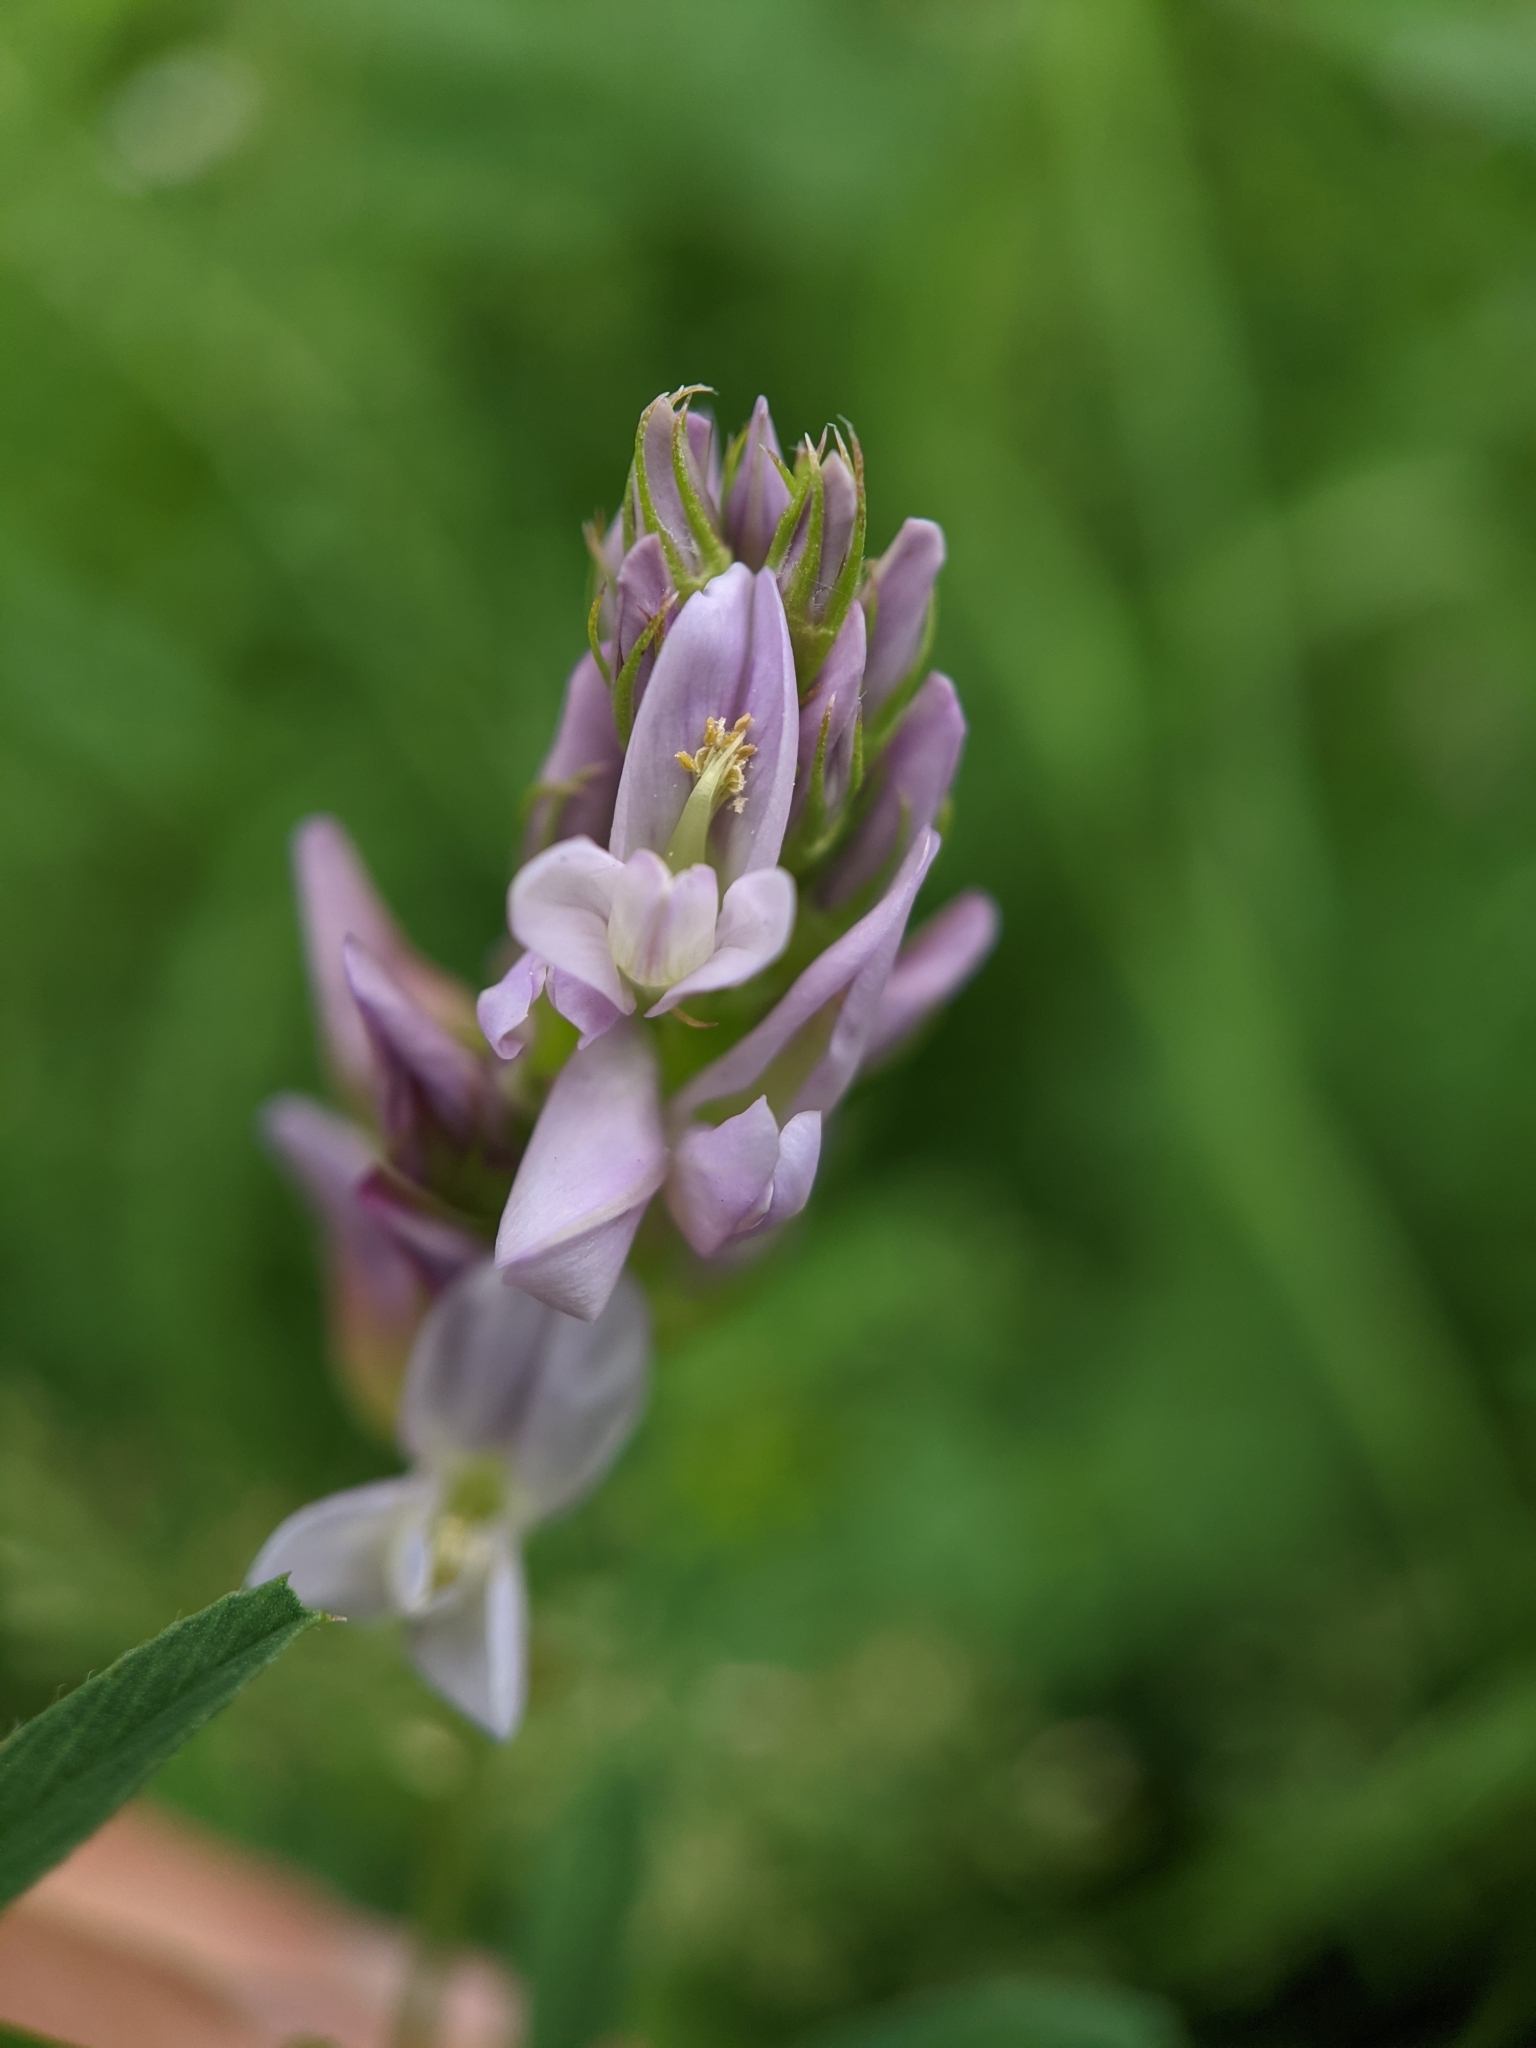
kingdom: Plantae
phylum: Tracheophyta
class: Magnoliopsida
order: Fabales
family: Fabaceae
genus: Medicago
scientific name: Medicago sativa
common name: Alfalfa
